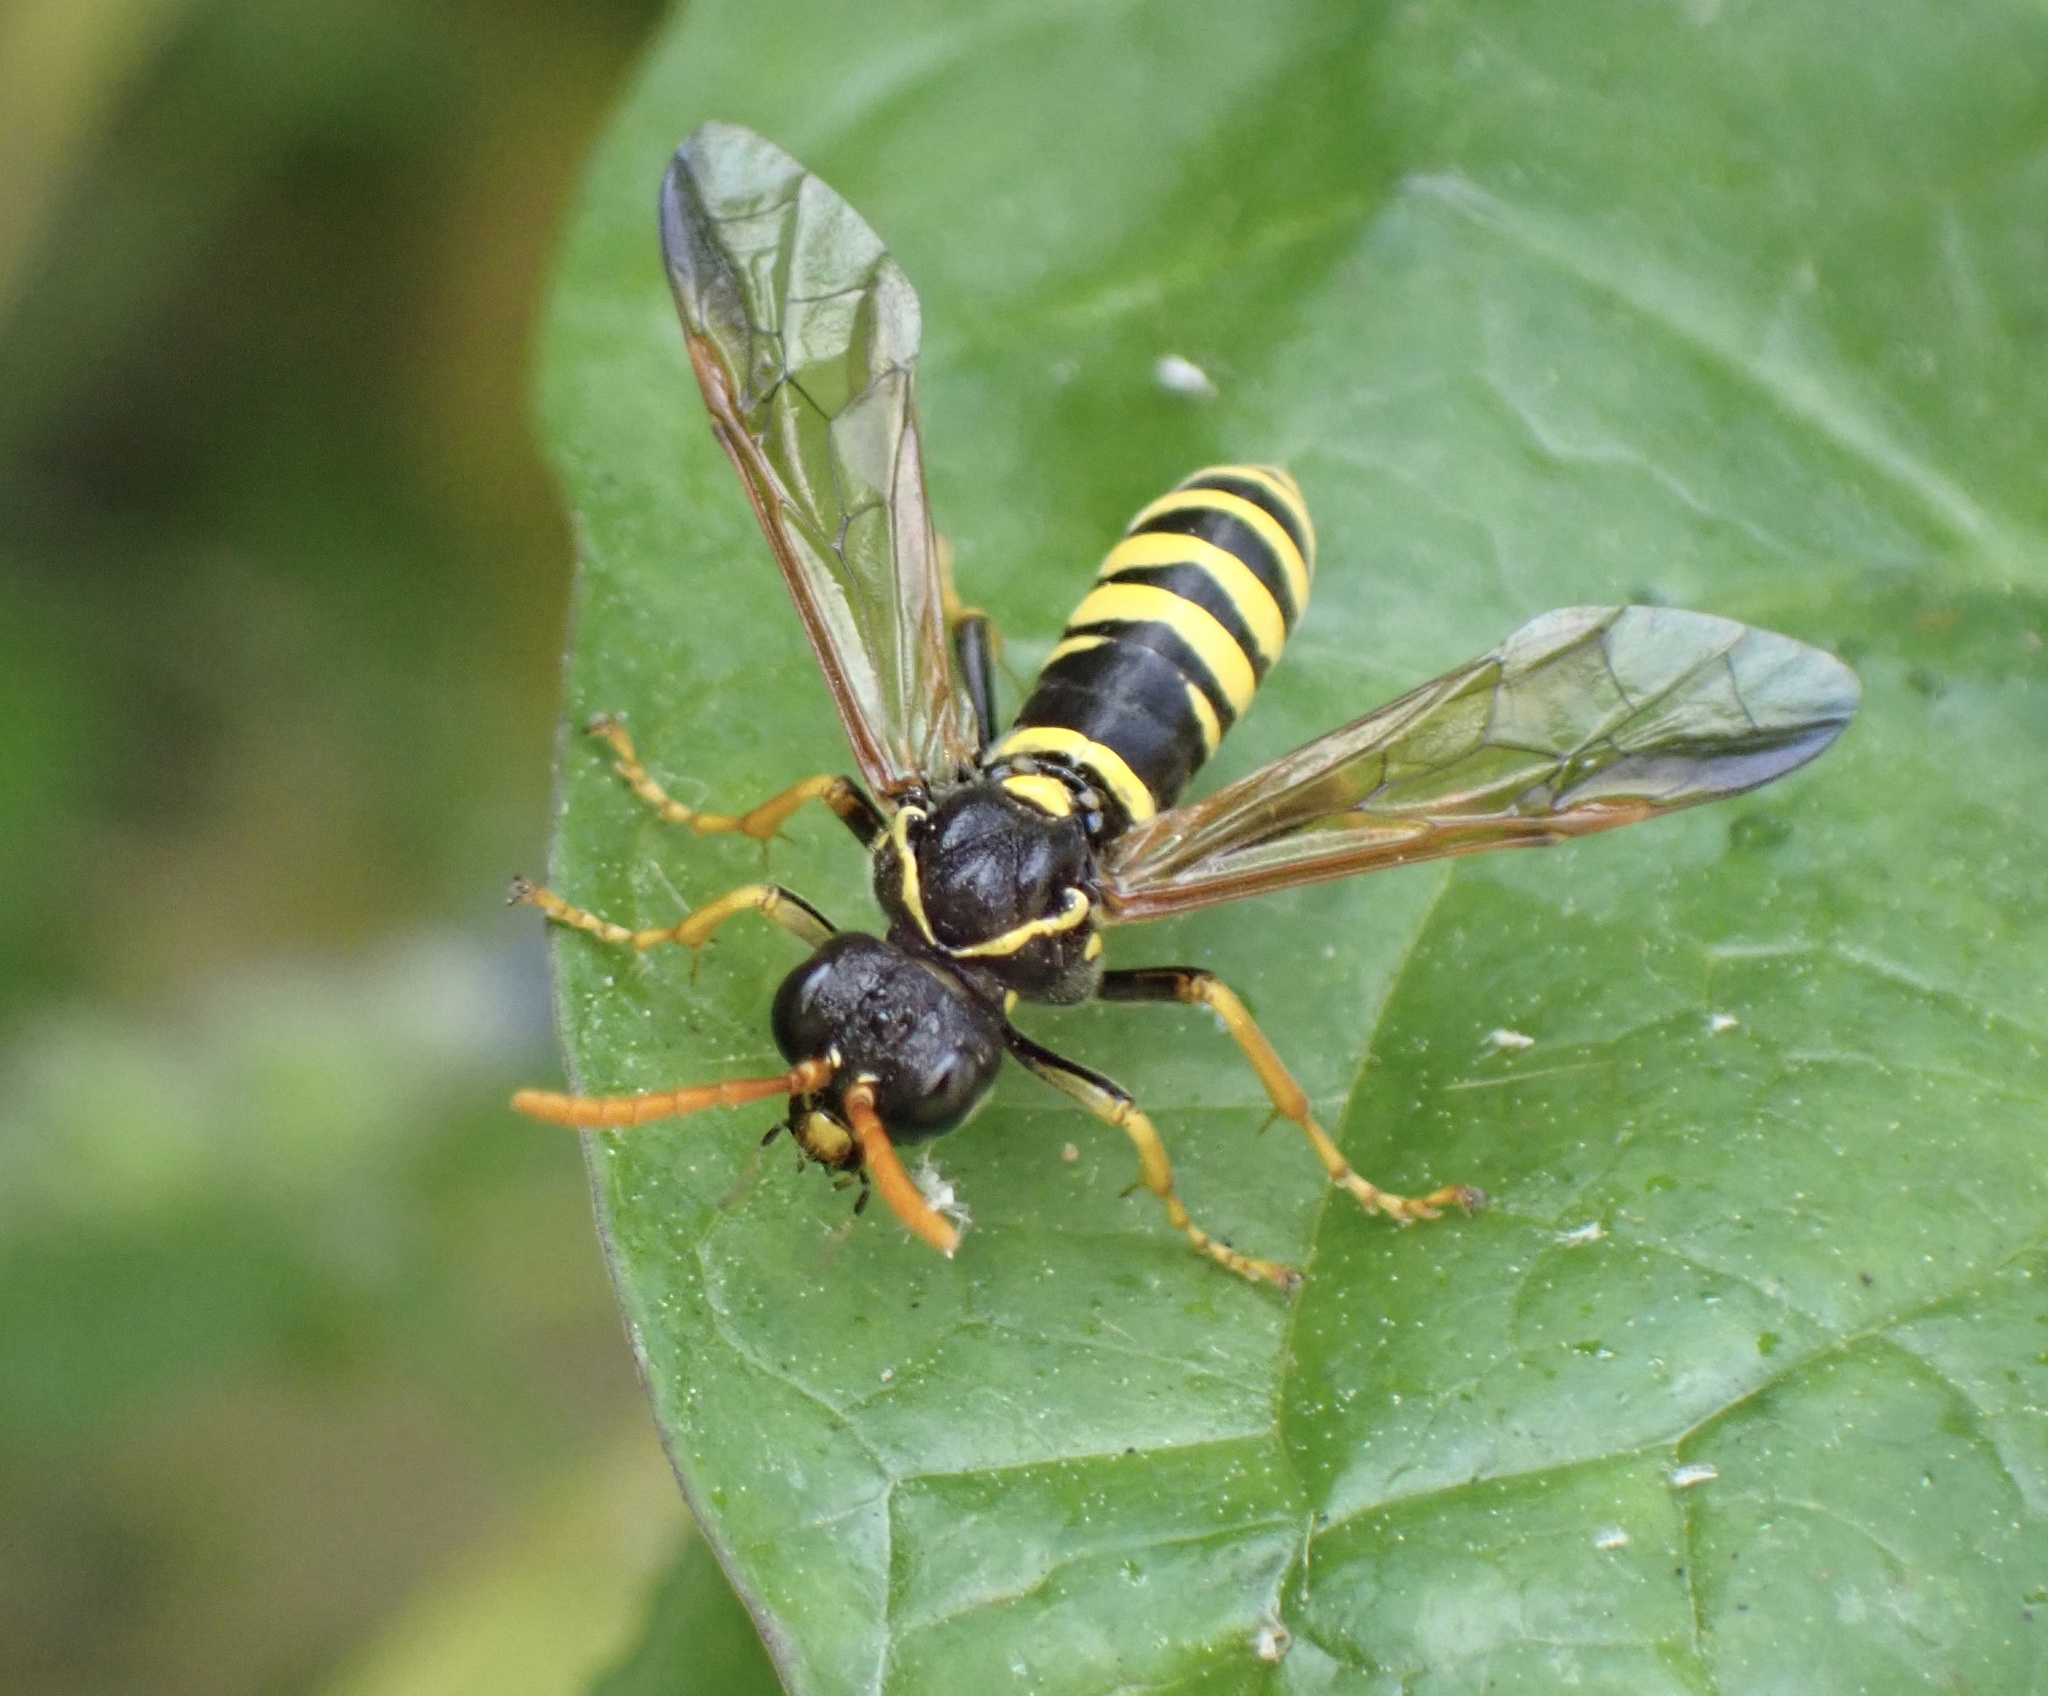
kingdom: Animalia
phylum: Arthropoda
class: Insecta
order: Hymenoptera
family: Tenthredinidae
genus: Tenthredo
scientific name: Tenthredo scrophulariae
